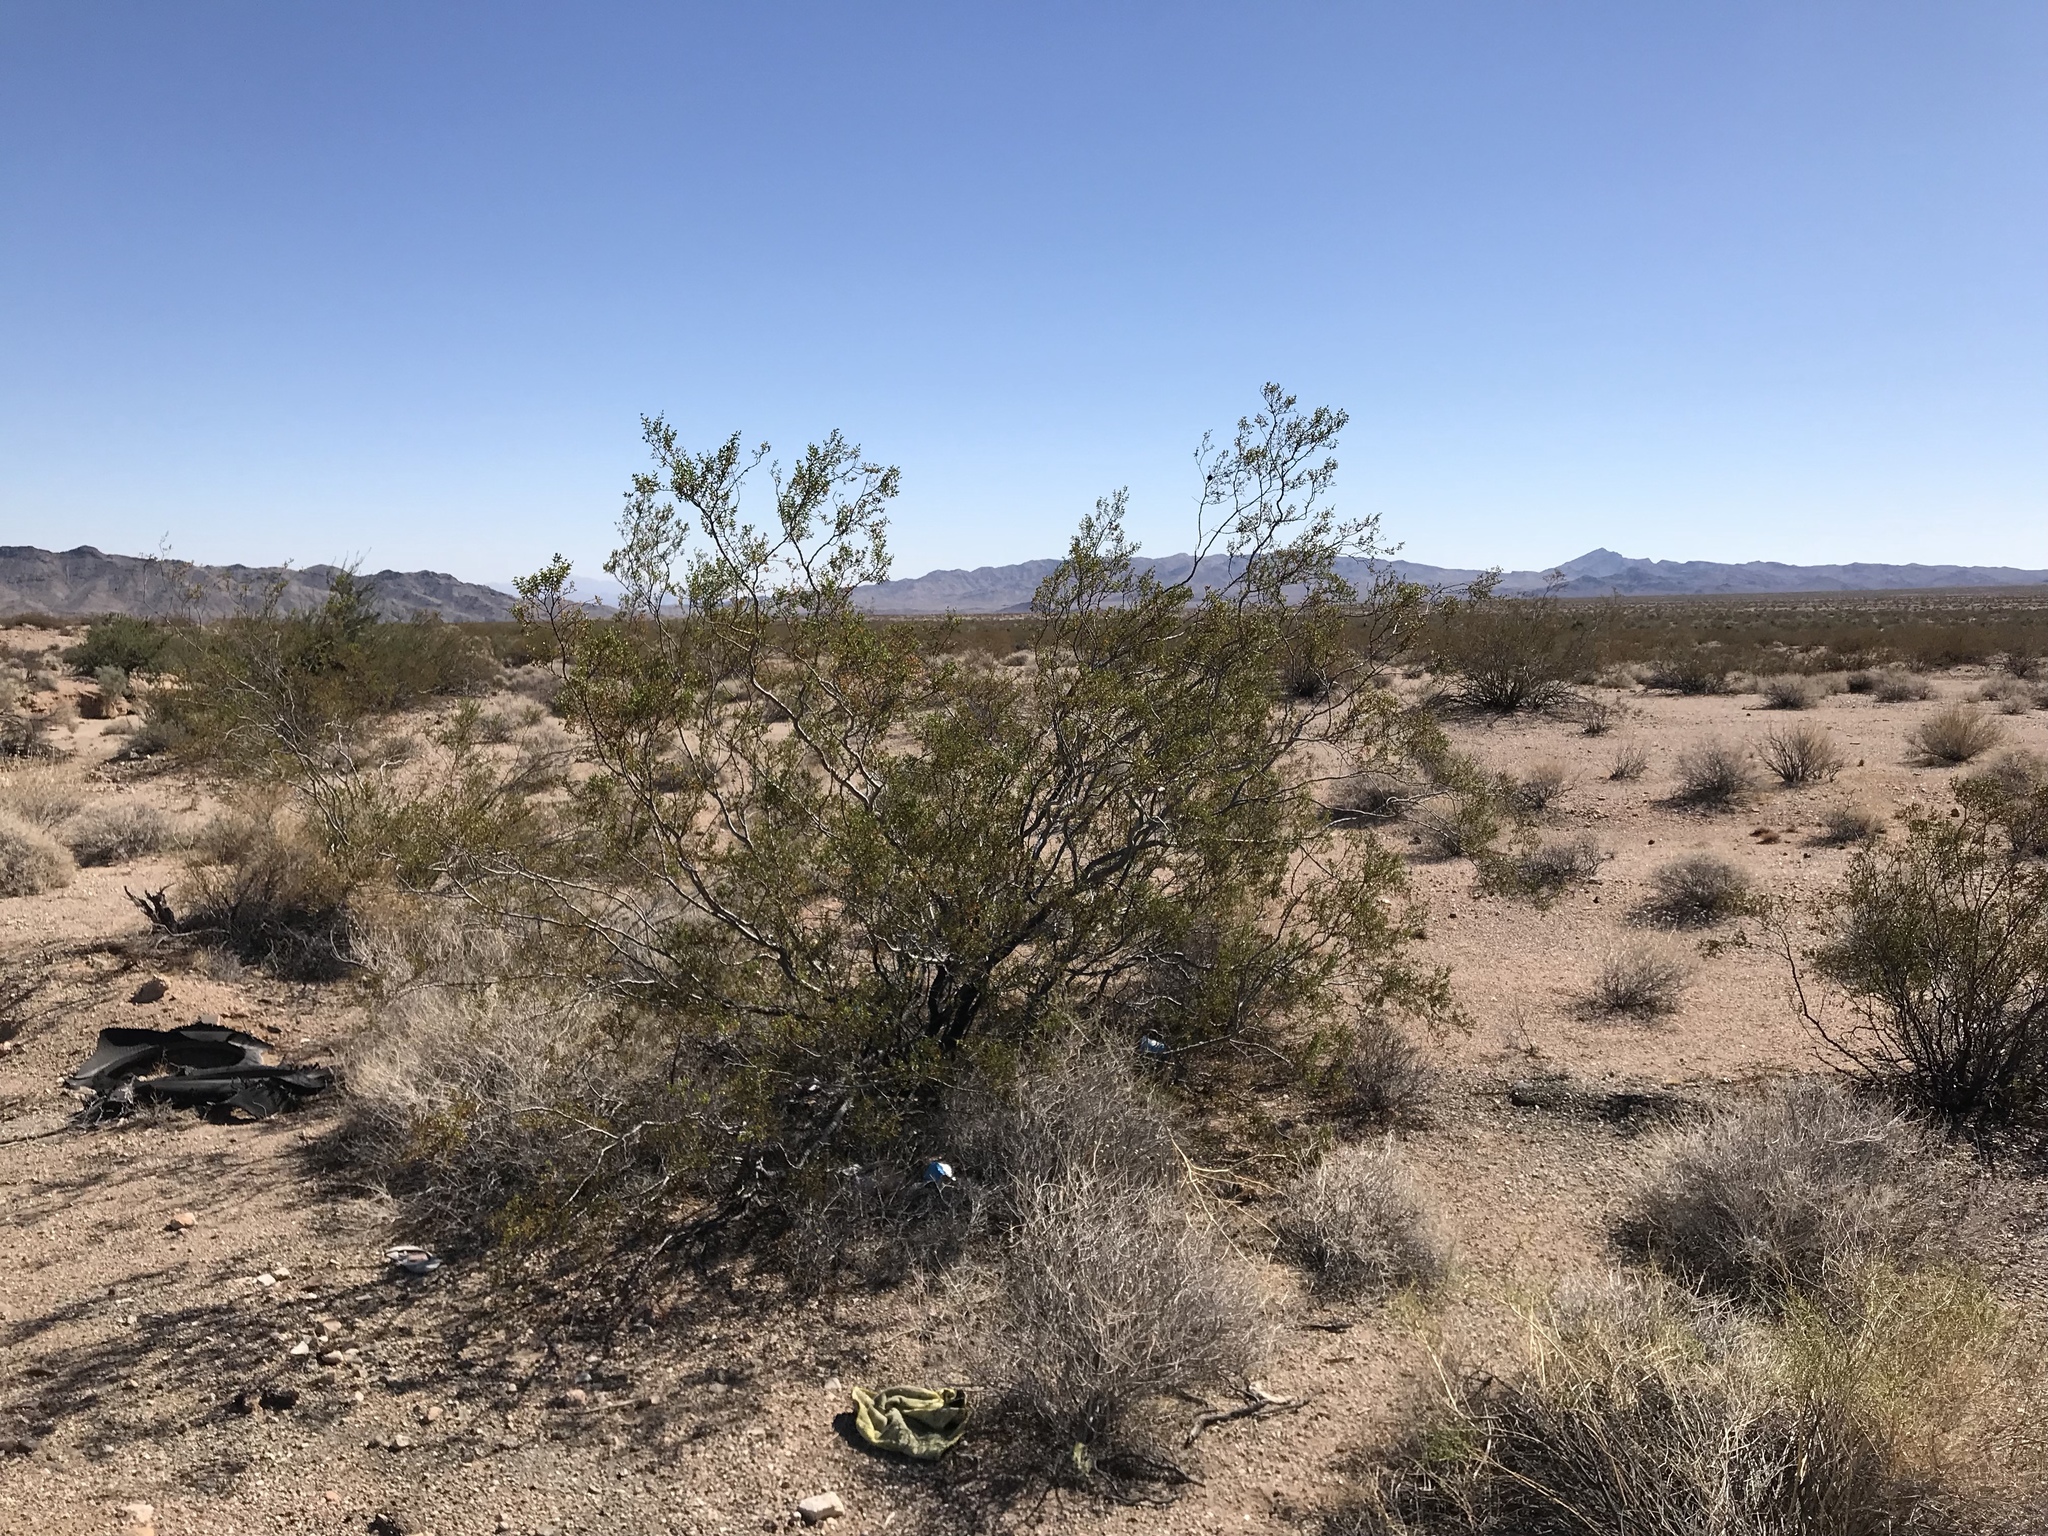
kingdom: Plantae
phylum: Tracheophyta
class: Magnoliopsida
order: Zygophyllales
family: Zygophyllaceae
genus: Larrea
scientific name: Larrea tridentata
